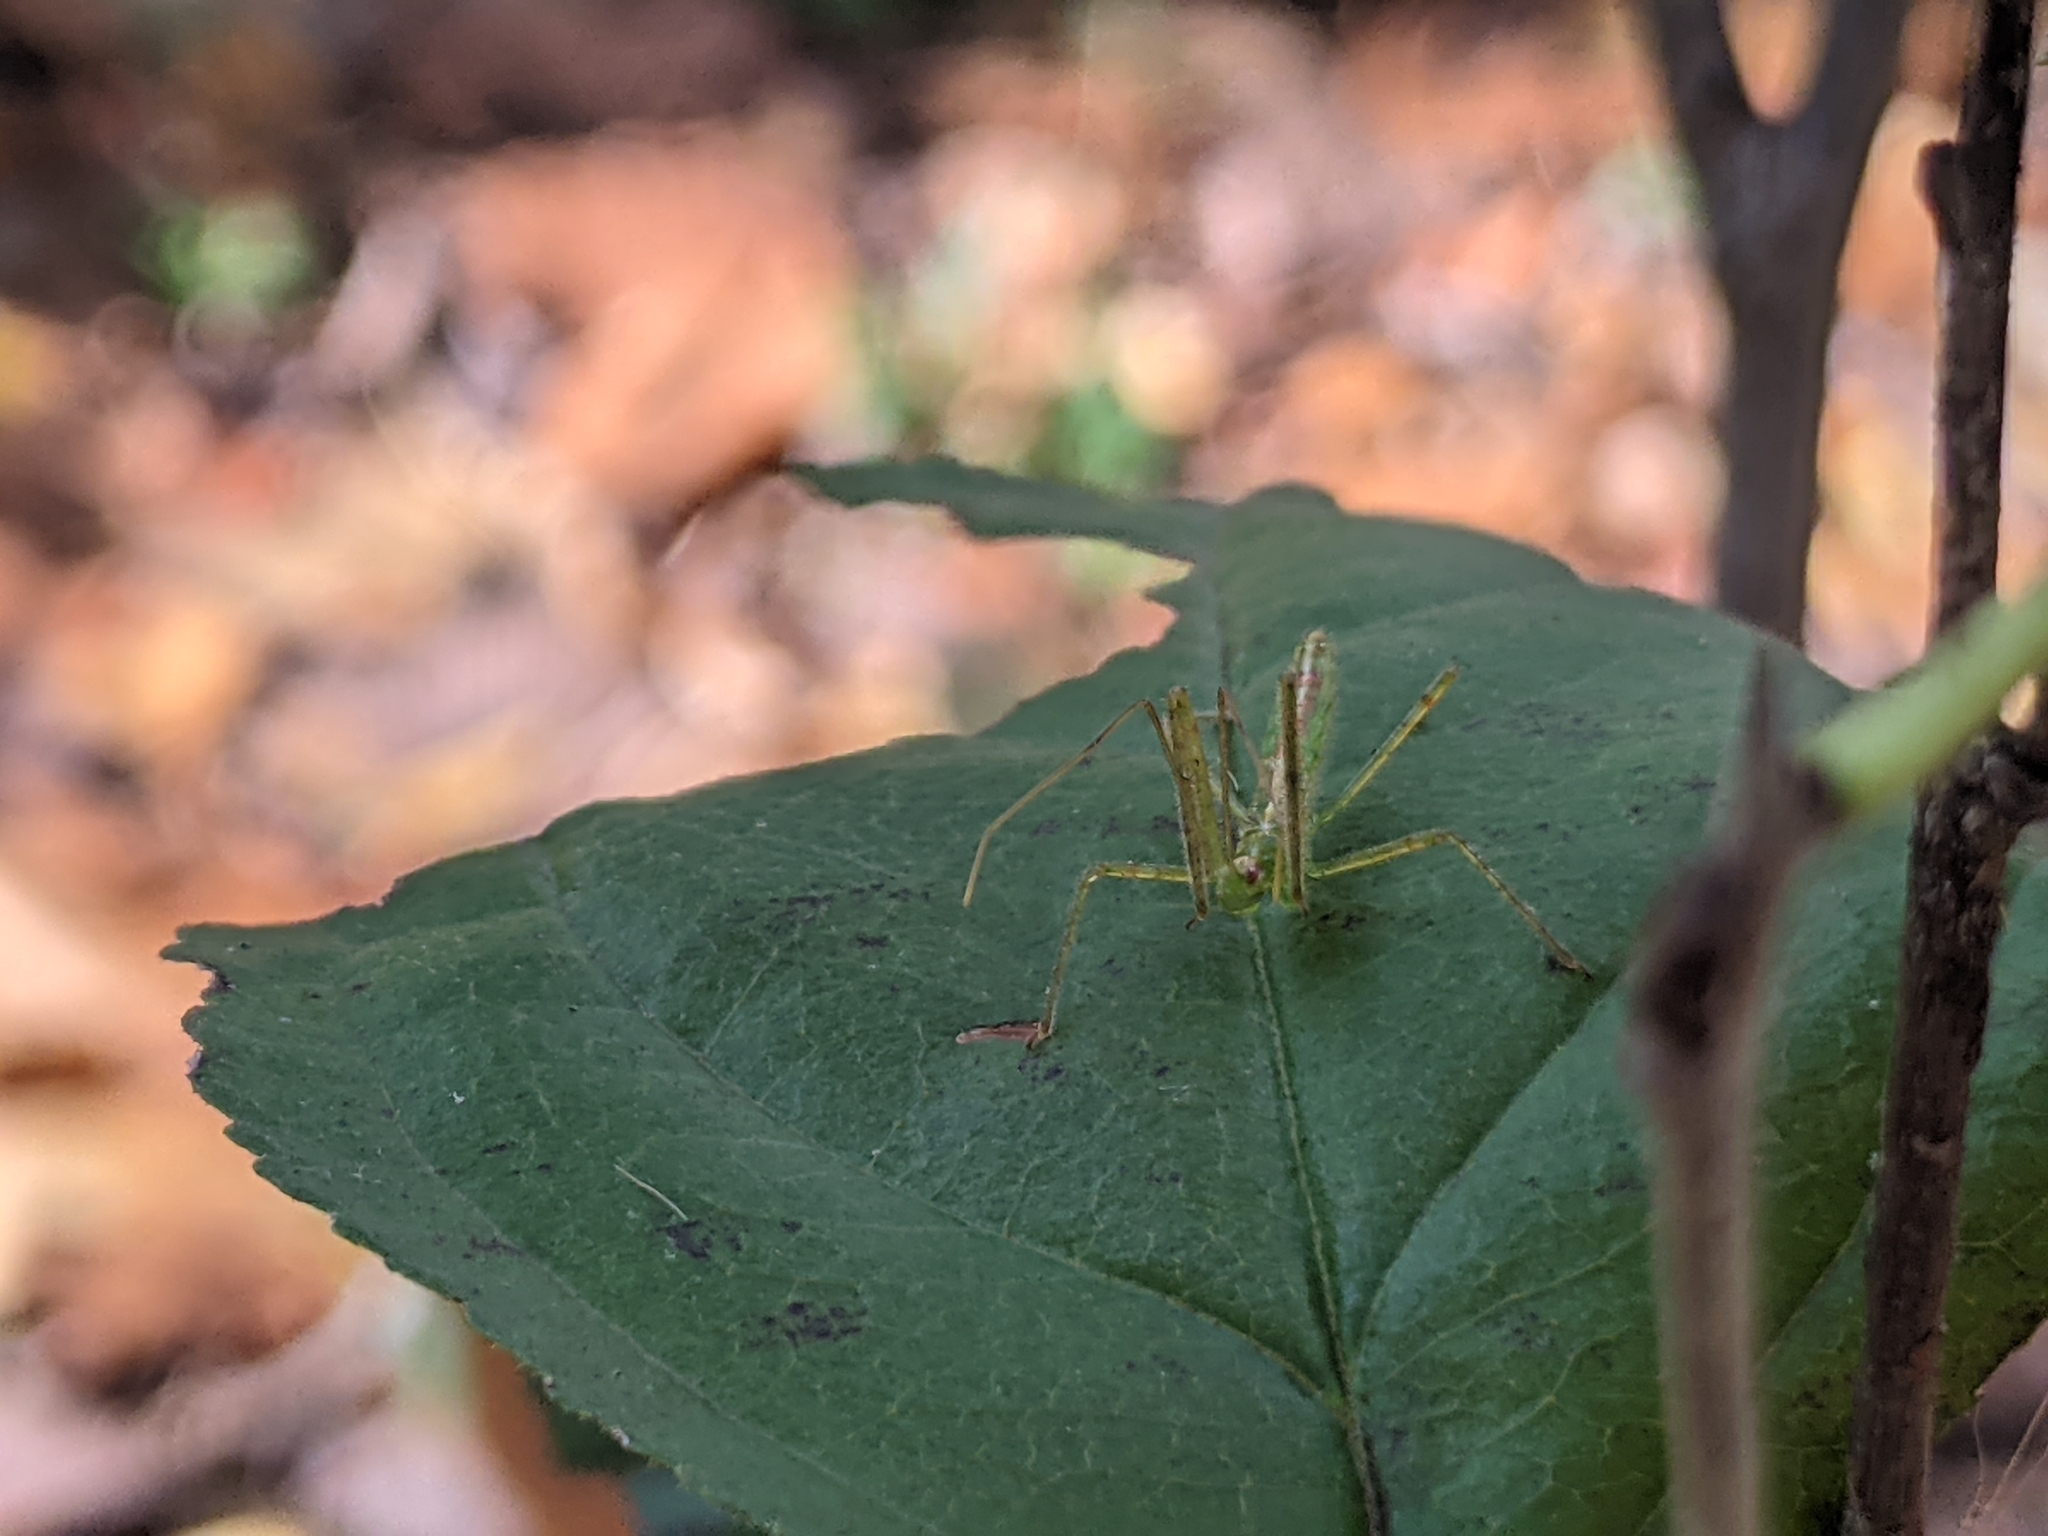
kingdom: Animalia
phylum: Arthropoda
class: Insecta
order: Hemiptera
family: Reduviidae
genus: Zelus
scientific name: Zelus luridus
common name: Pale green assassin bug
